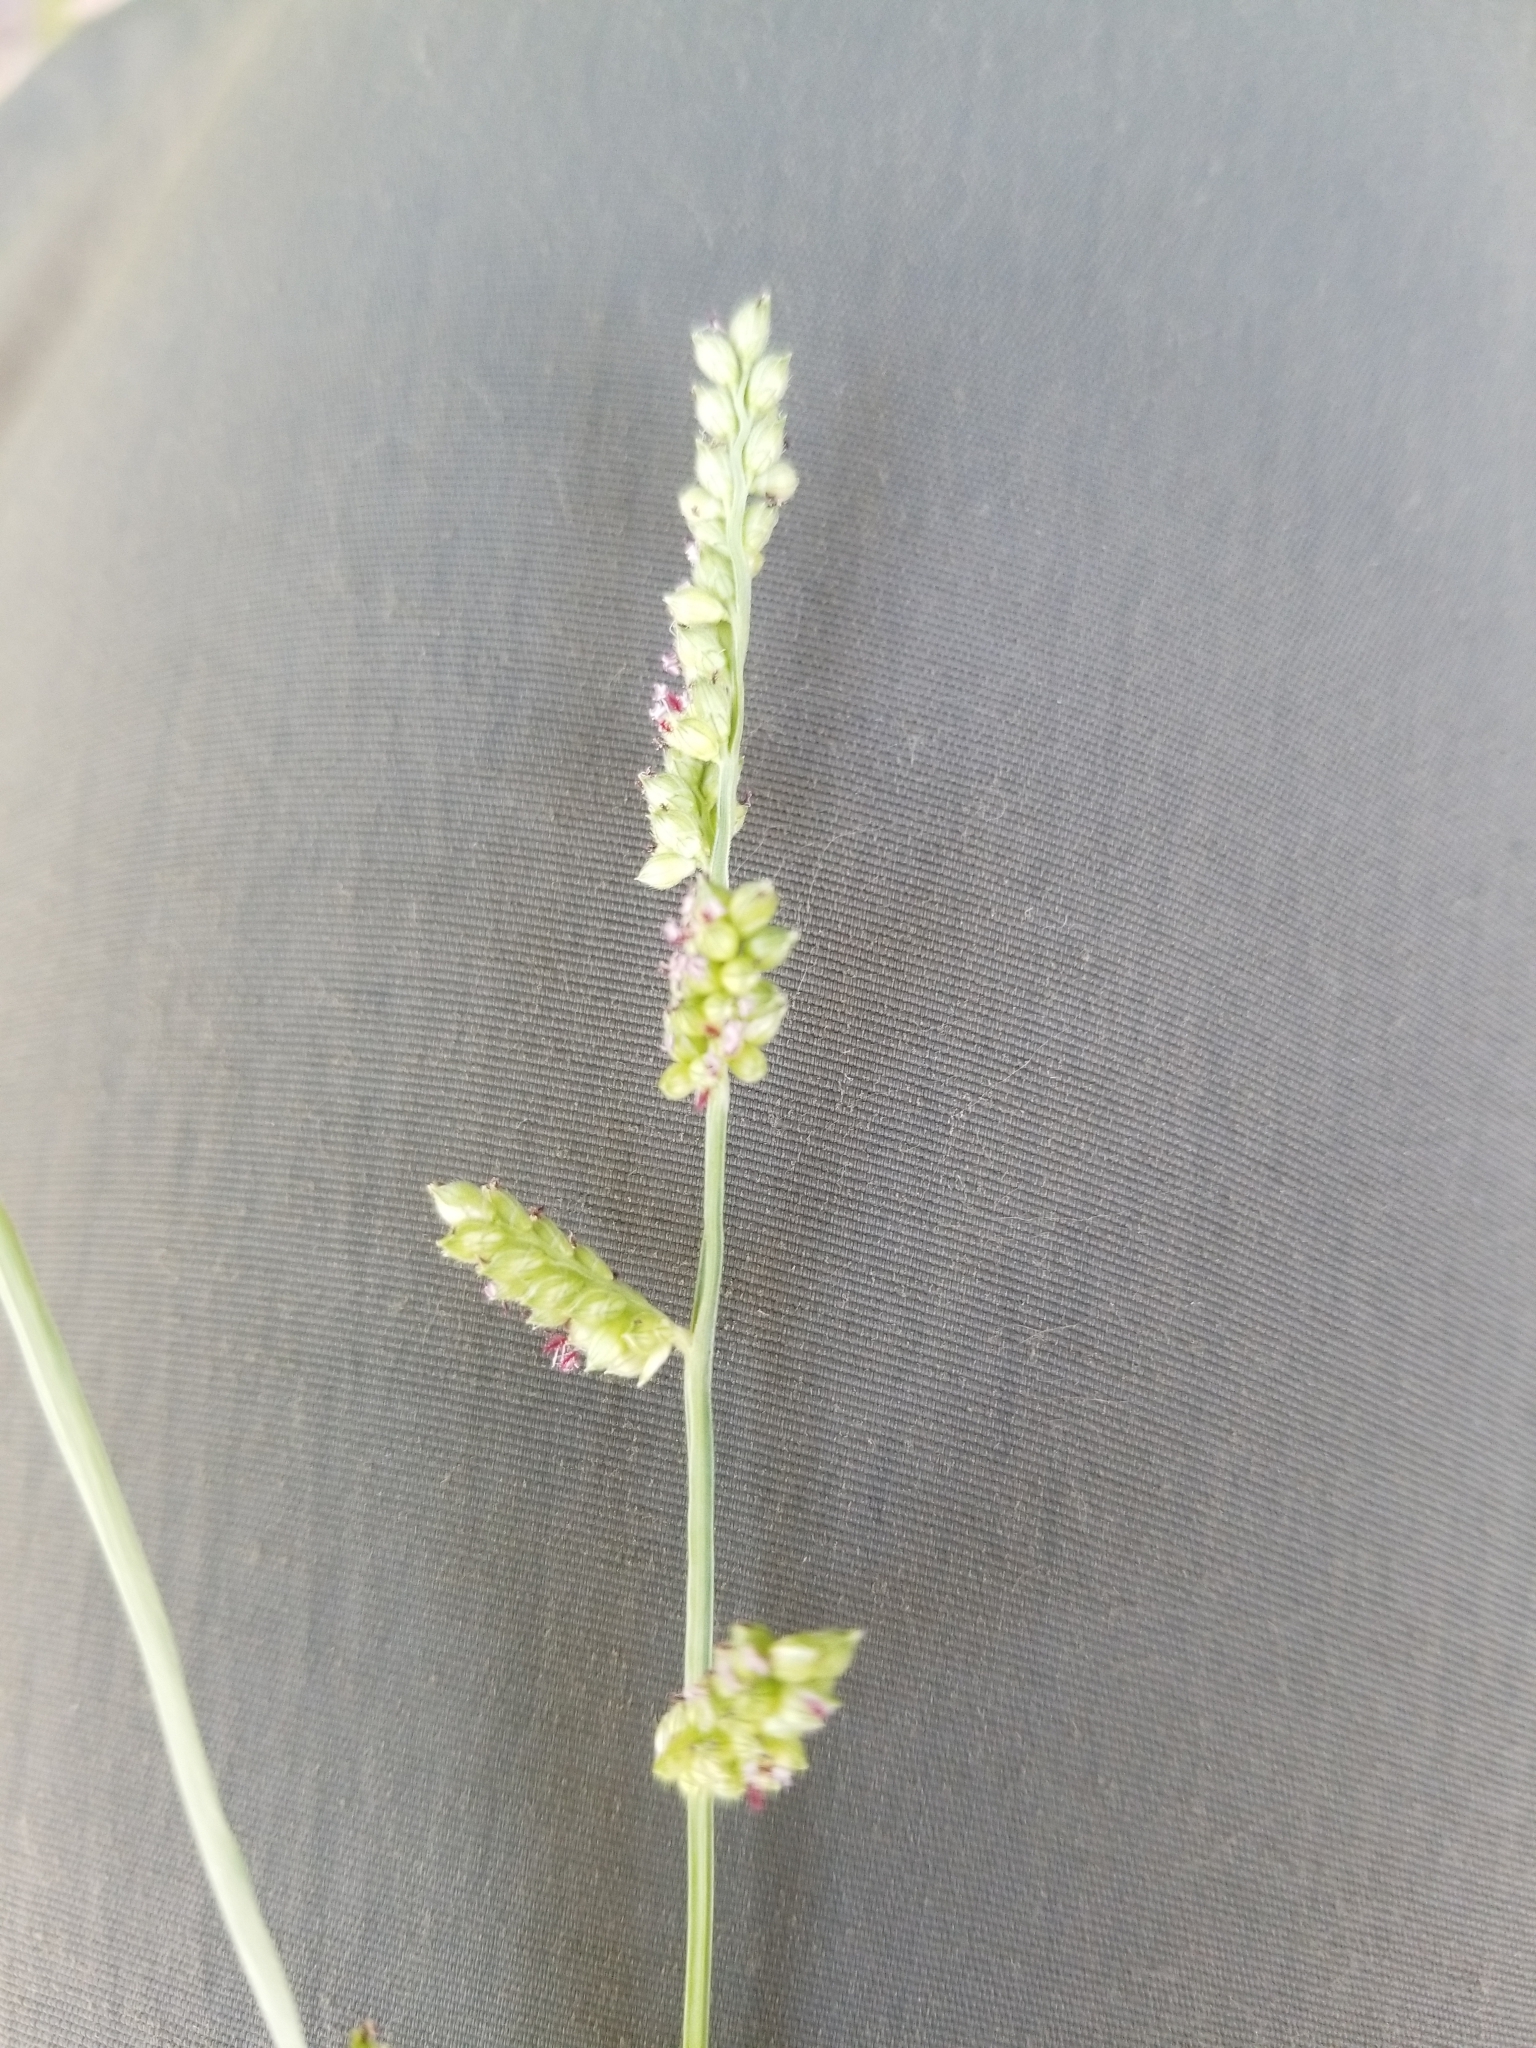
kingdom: Plantae
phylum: Tracheophyta
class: Liliopsida
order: Poales
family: Poaceae
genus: Echinochloa
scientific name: Echinochloa colonum
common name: Jungle rice
